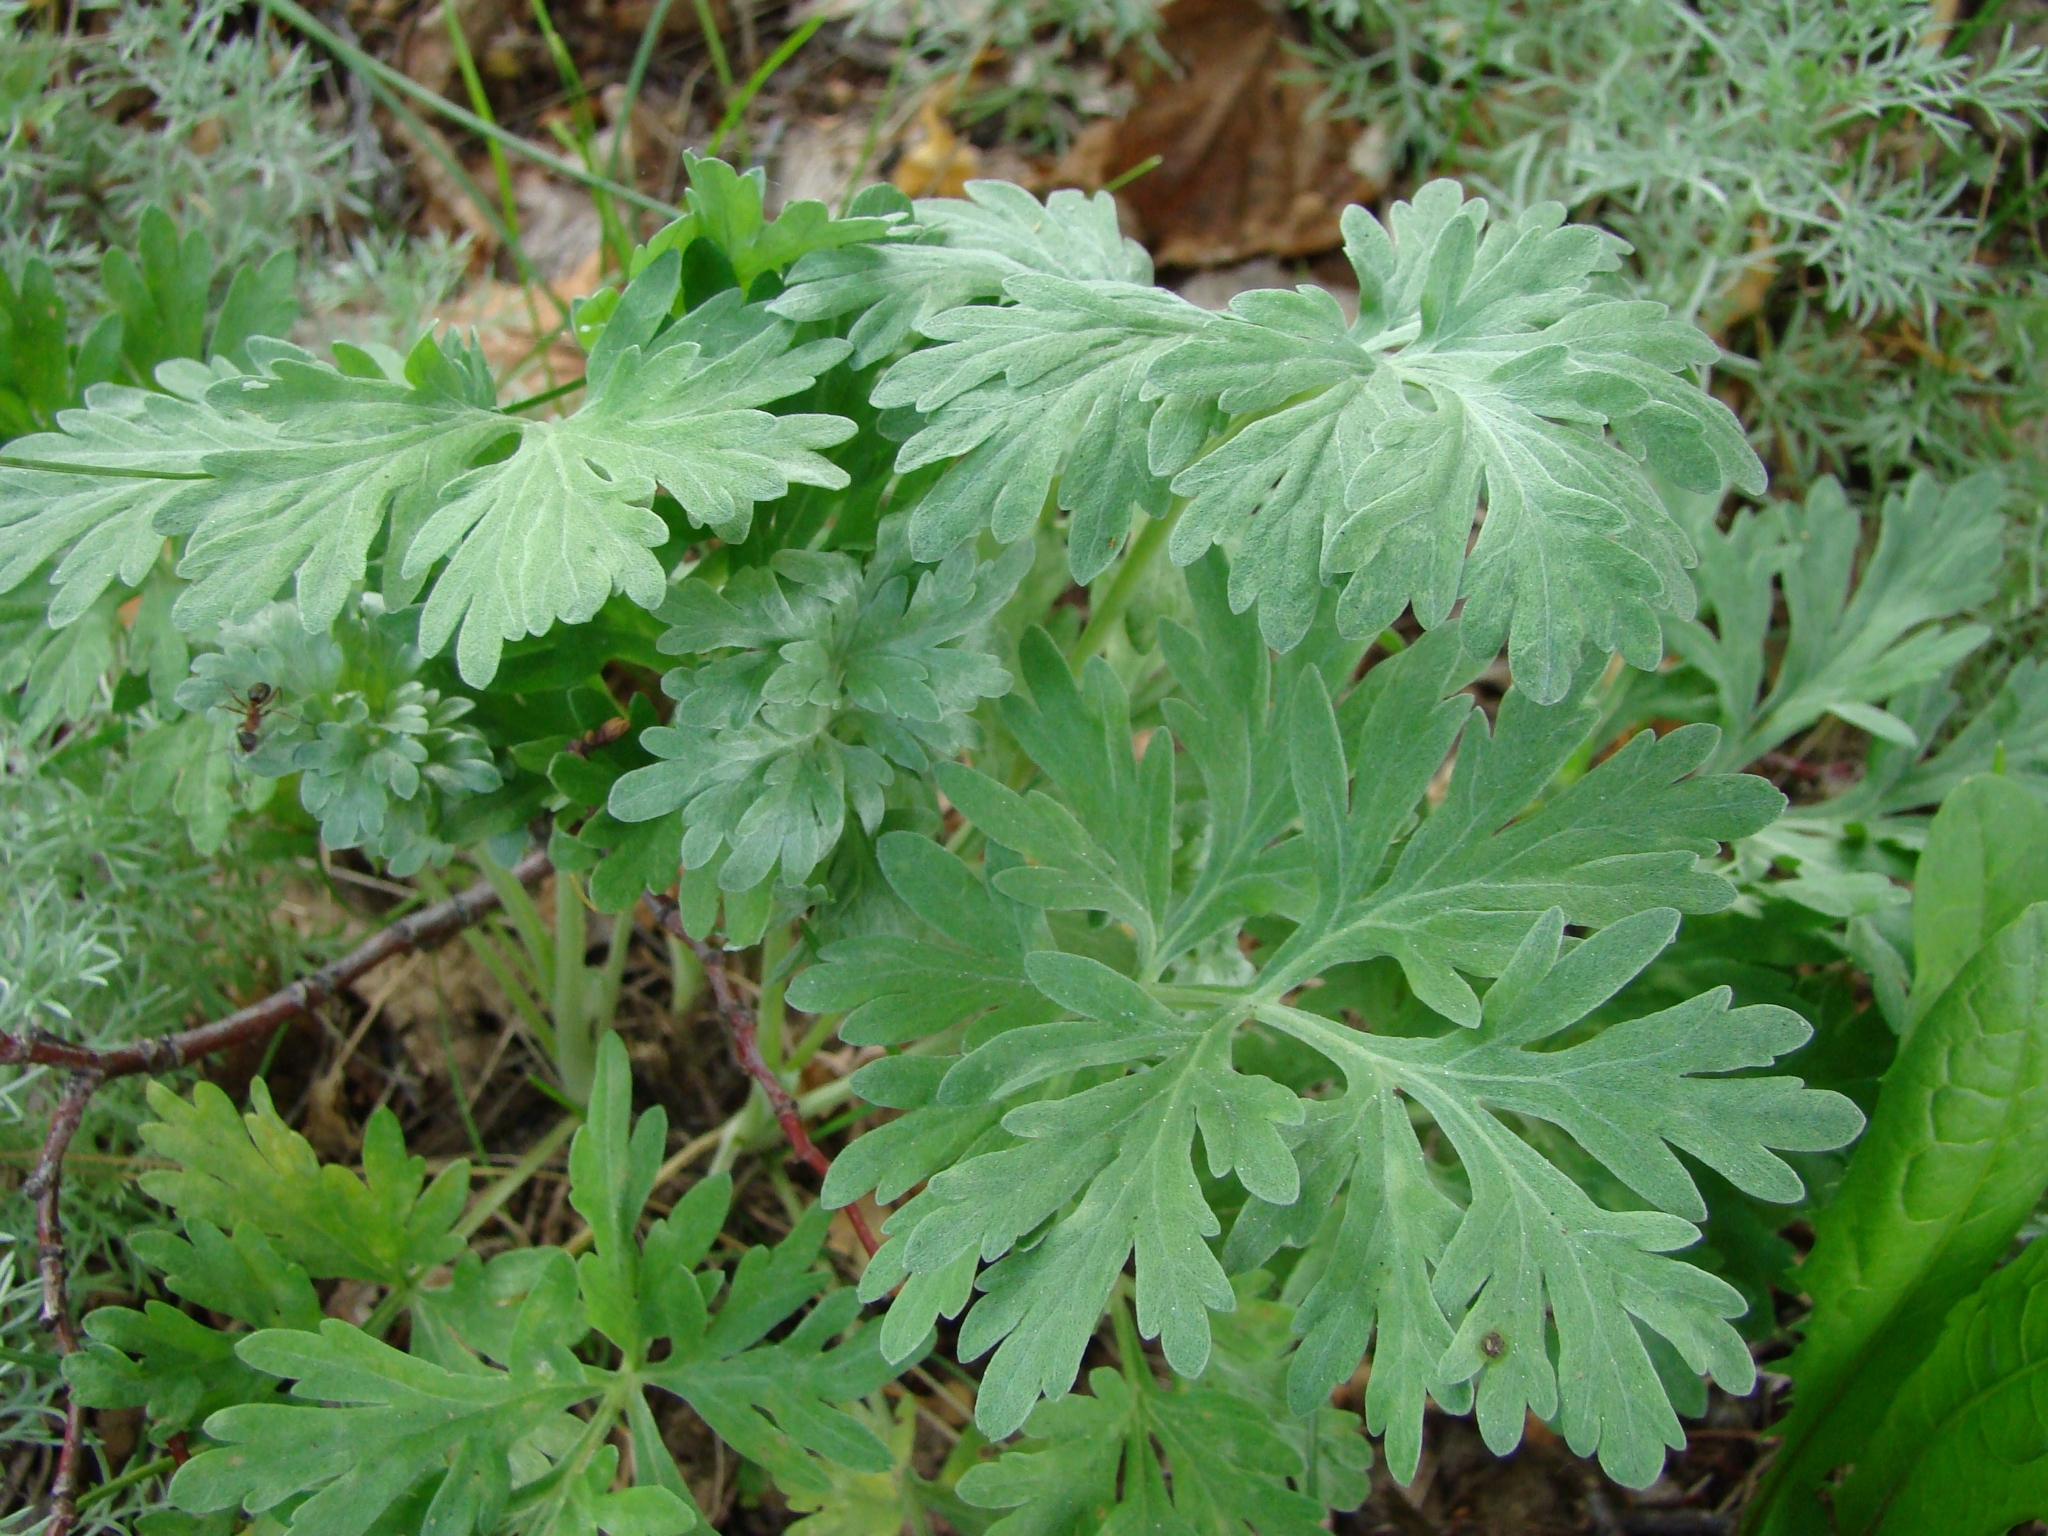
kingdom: Plantae
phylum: Tracheophyta
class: Magnoliopsida
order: Asterales
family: Asteraceae
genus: Artemisia
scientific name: Artemisia absinthium
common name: Wormwood
